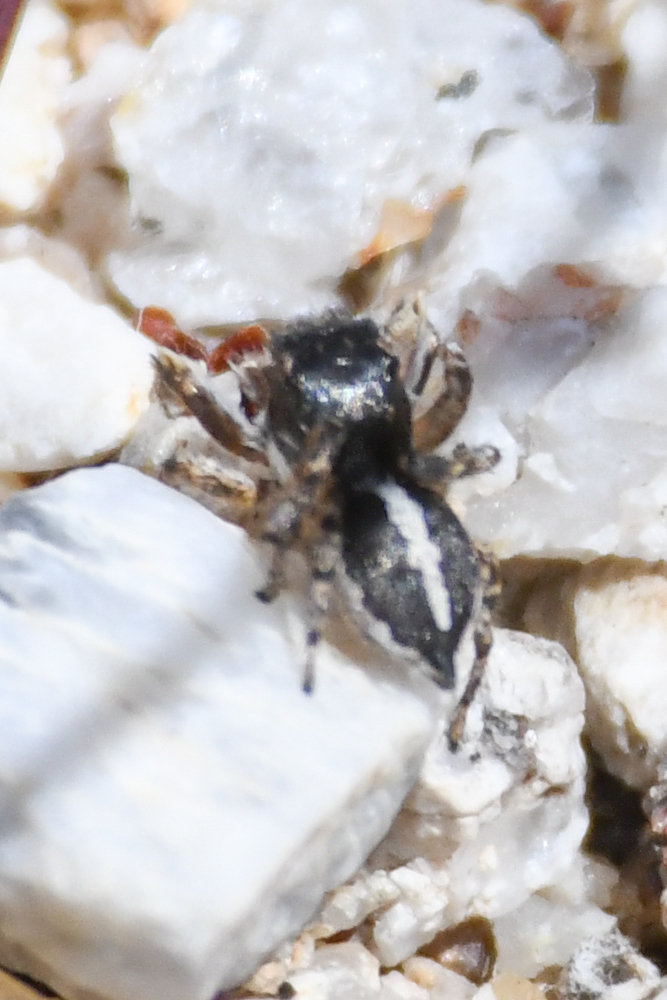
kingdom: Animalia
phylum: Arthropoda
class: Arachnida
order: Araneae
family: Salticidae
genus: Habronattus
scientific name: Habronattus elegans
